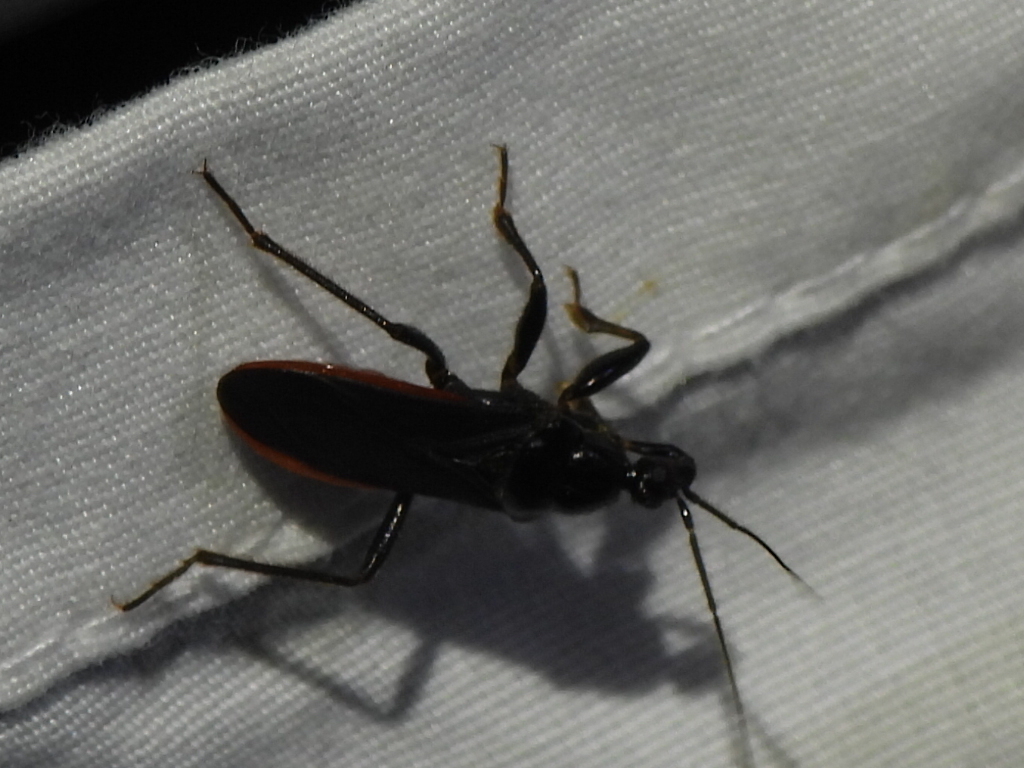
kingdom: Animalia
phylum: Arthropoda
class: Insecta
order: Hemiptera
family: Reduviidae
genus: Melanolestes
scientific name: Melanolestes picipes
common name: Assassin bug
